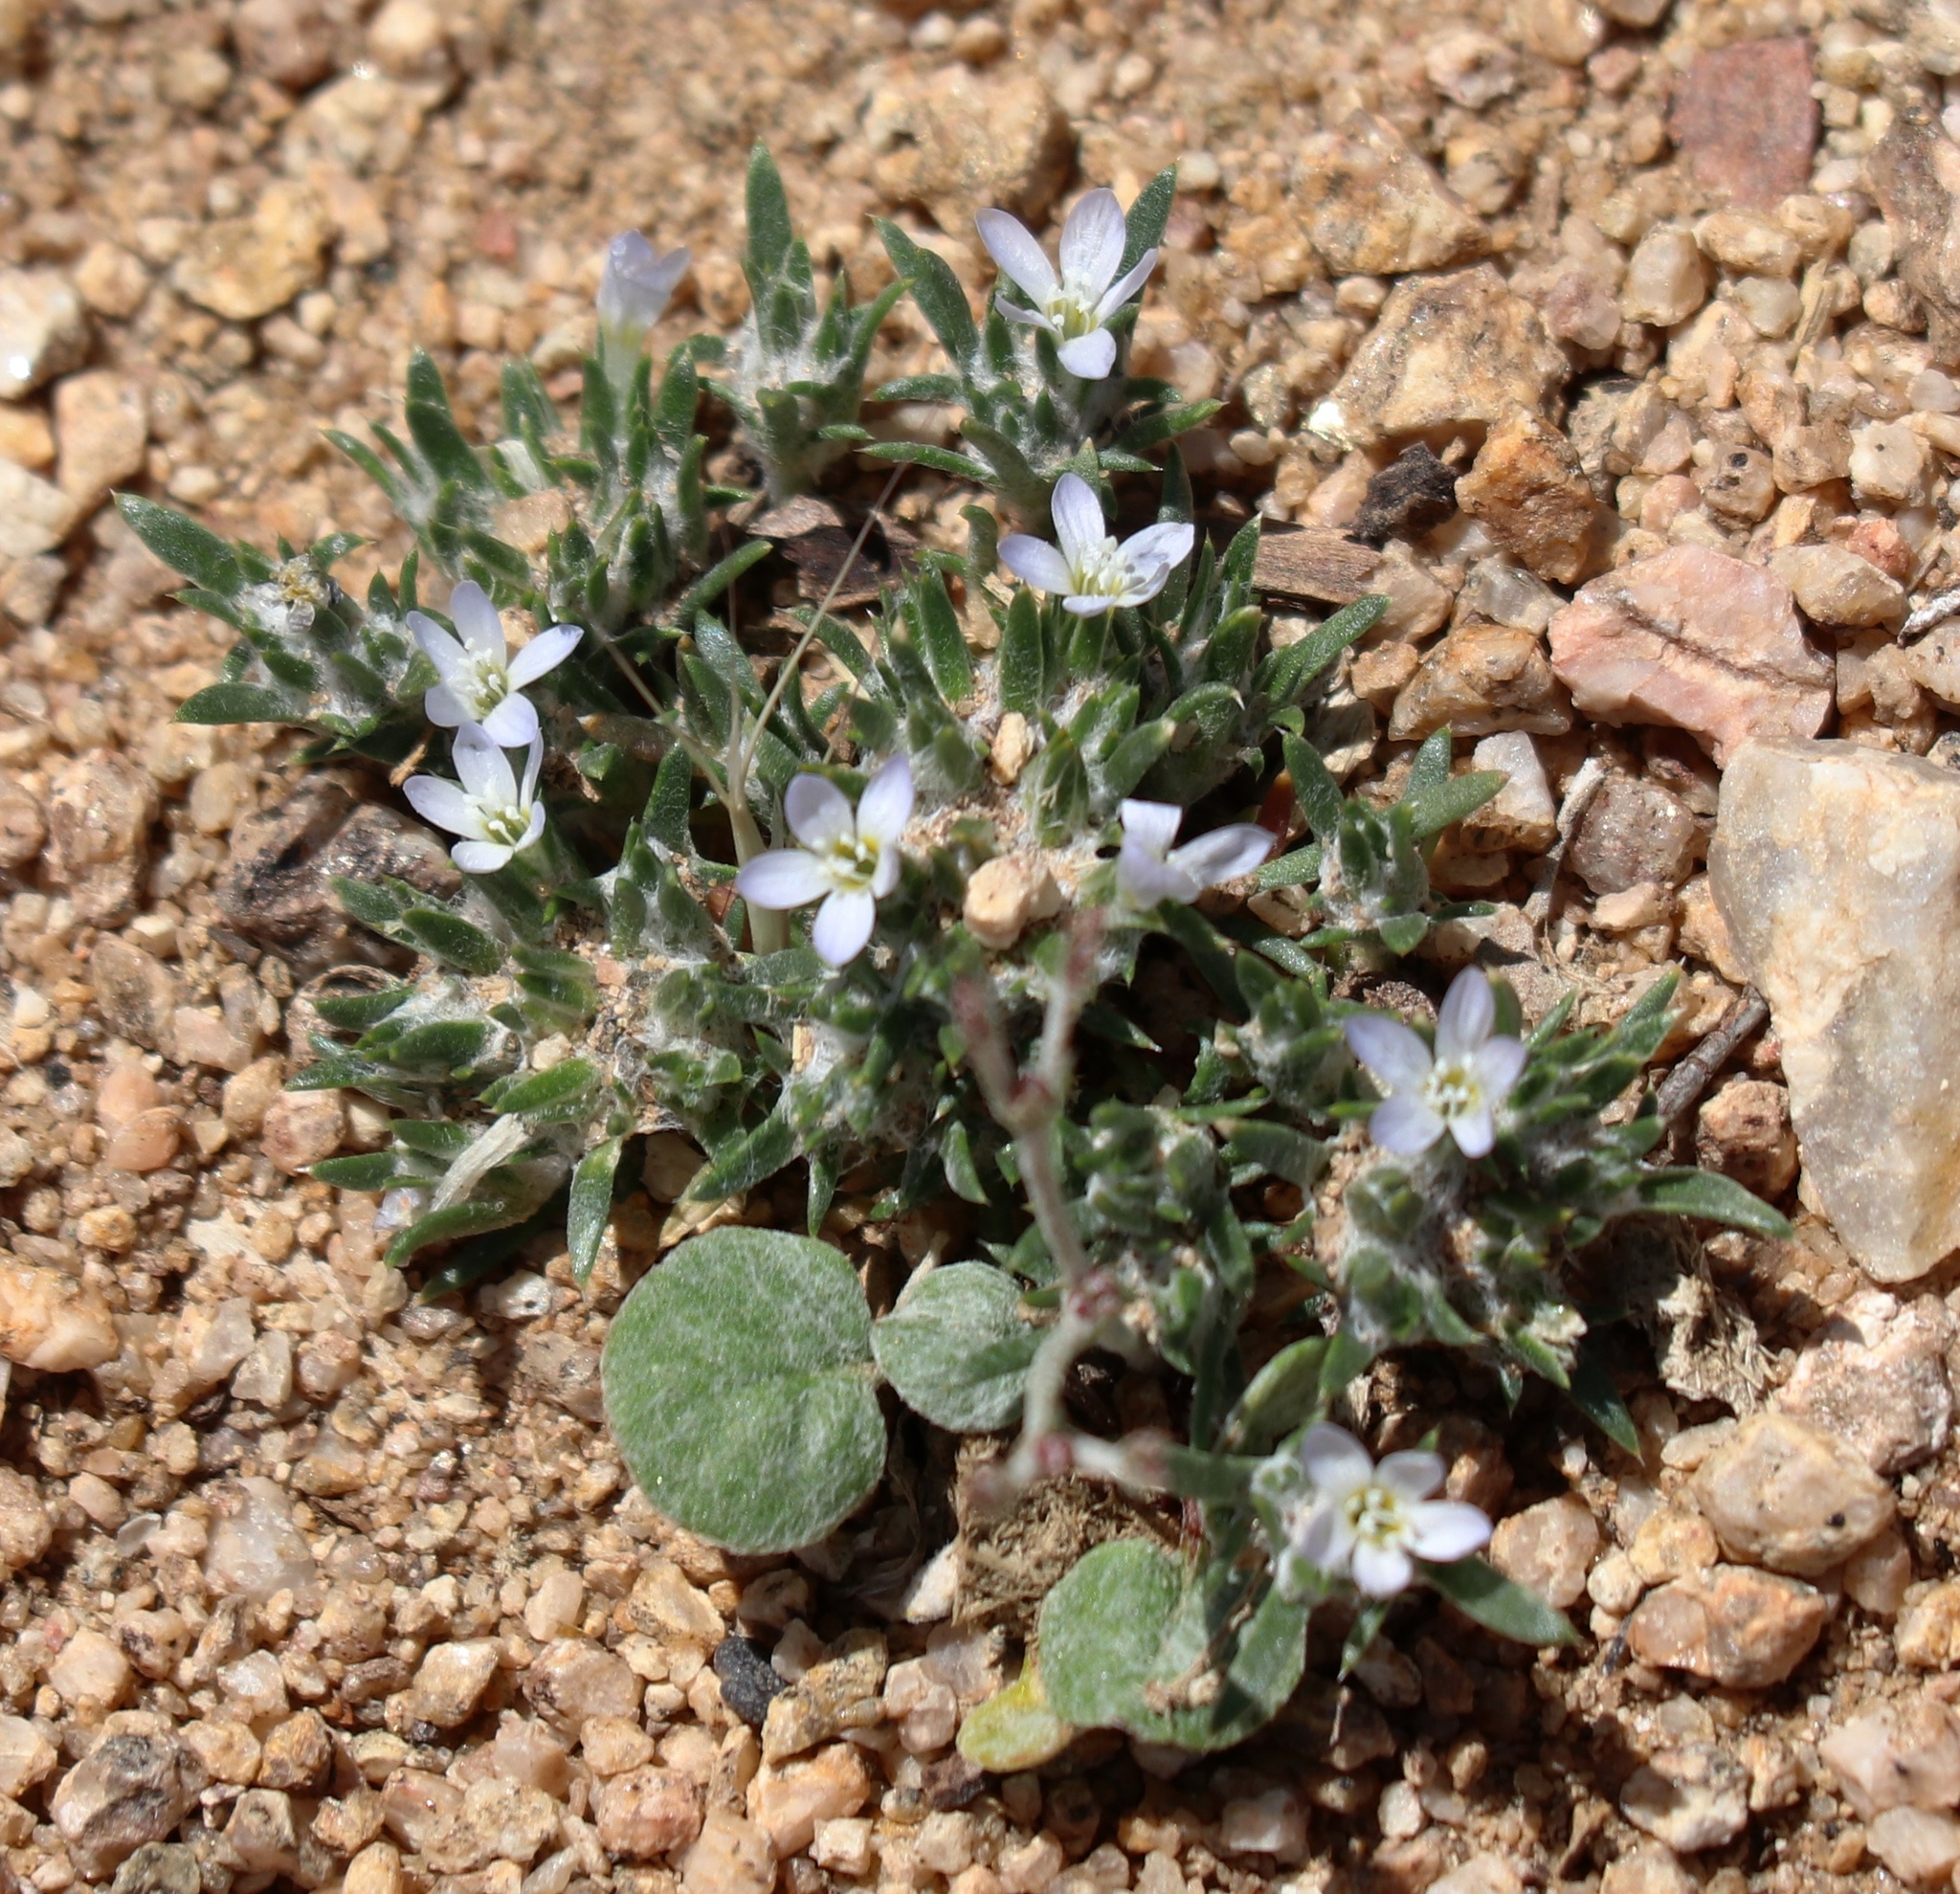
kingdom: Plantae
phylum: Tracheophyta
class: Magnoliopsida
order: Ericales
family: Polemoniaceae
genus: Eriastrum
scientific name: Eriastrum diffusum
